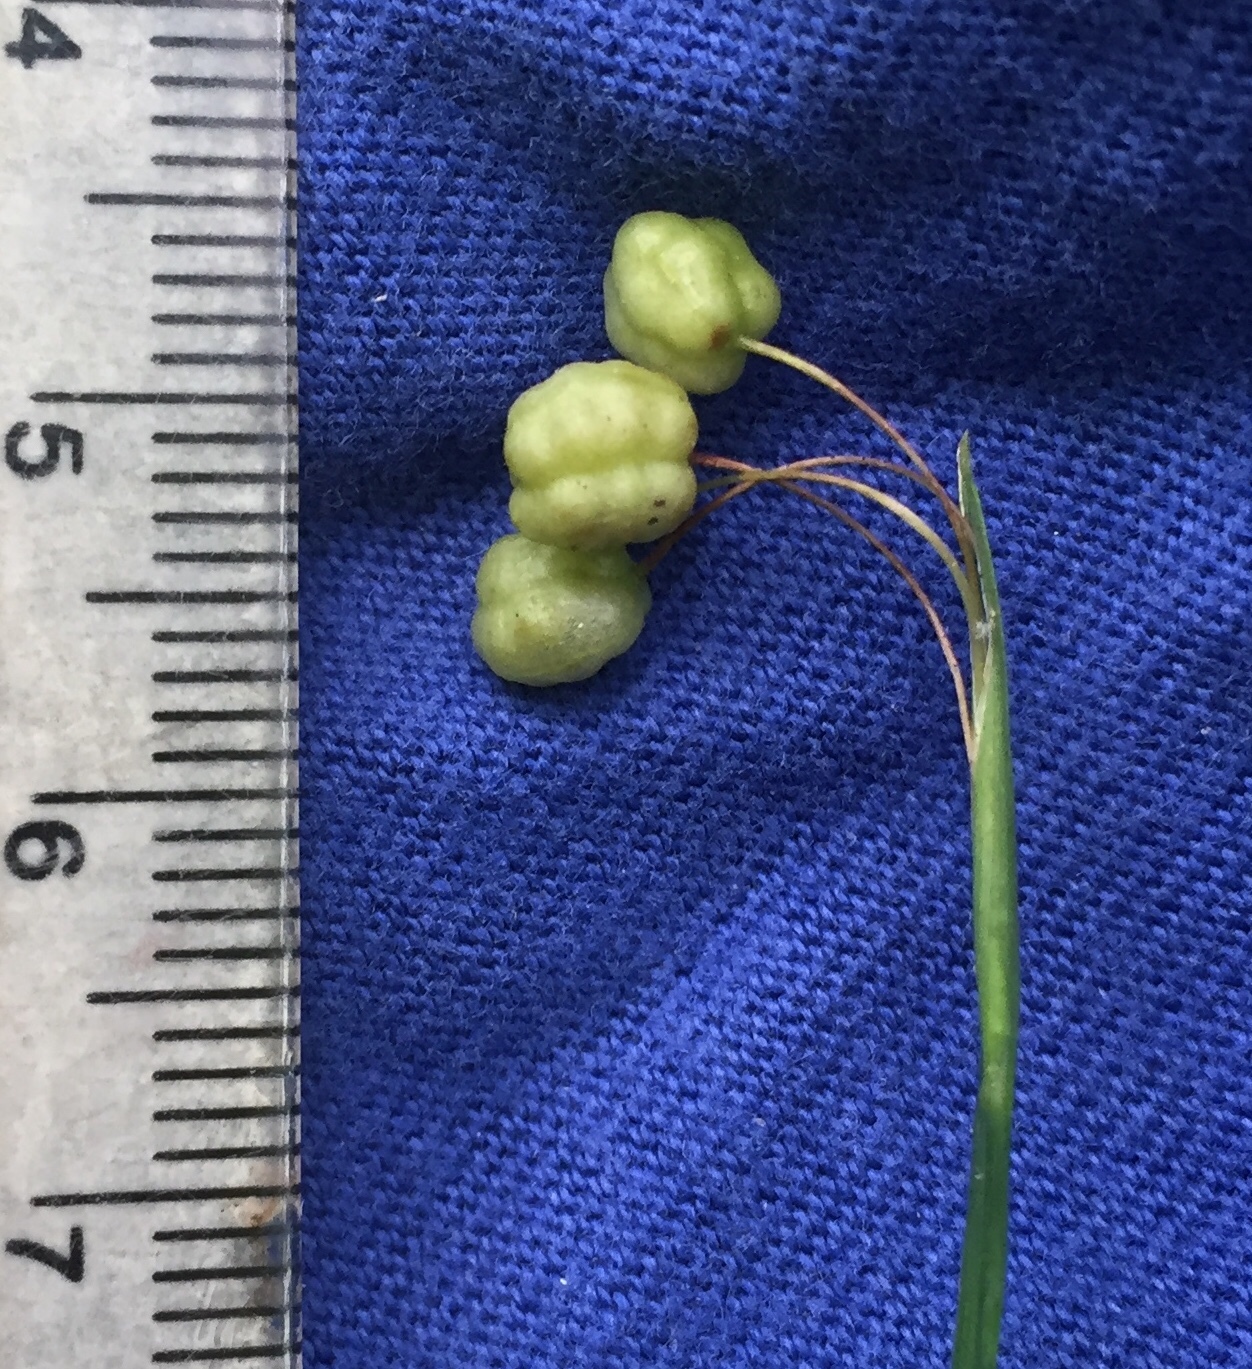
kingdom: Plantae
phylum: Tracheophyta
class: Liliopsida
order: Asparagales
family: Iridaceae
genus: Sisyrinchium
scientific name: Sisyrinchium angustifolium
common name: Narrow-leaf blue-eyed-grass
